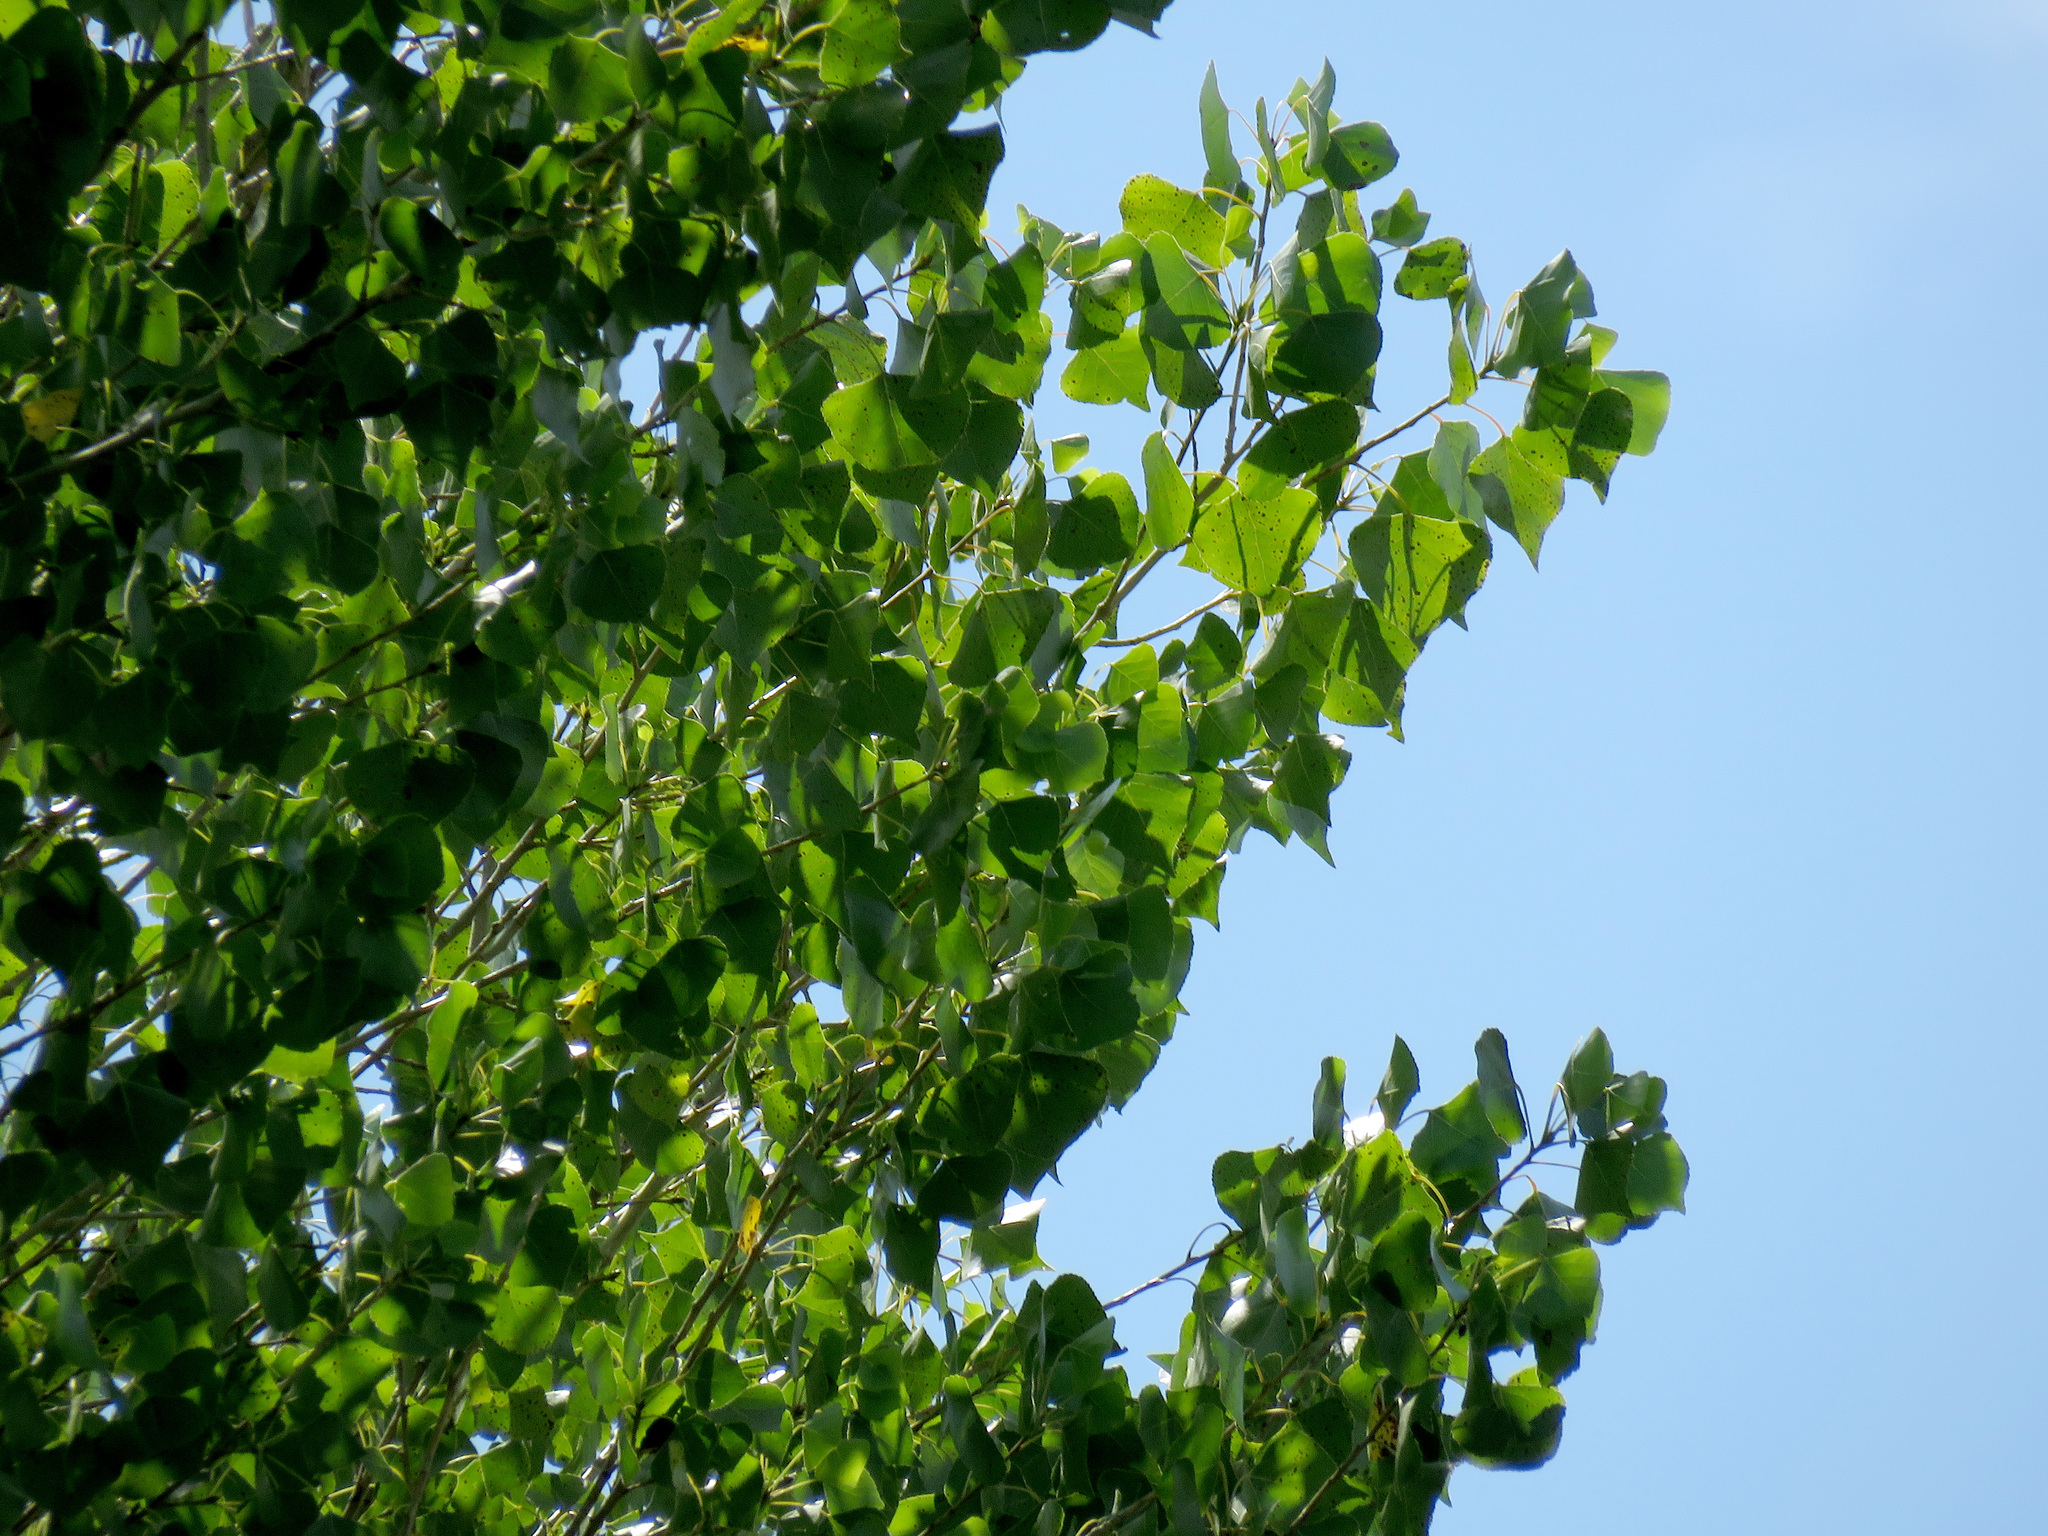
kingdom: Plantae
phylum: Tracheophyta
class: Magnoliopsida
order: Malpighiales
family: Salicaceae
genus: Populus
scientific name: Populus fremontii
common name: Fremont's cottonwood
